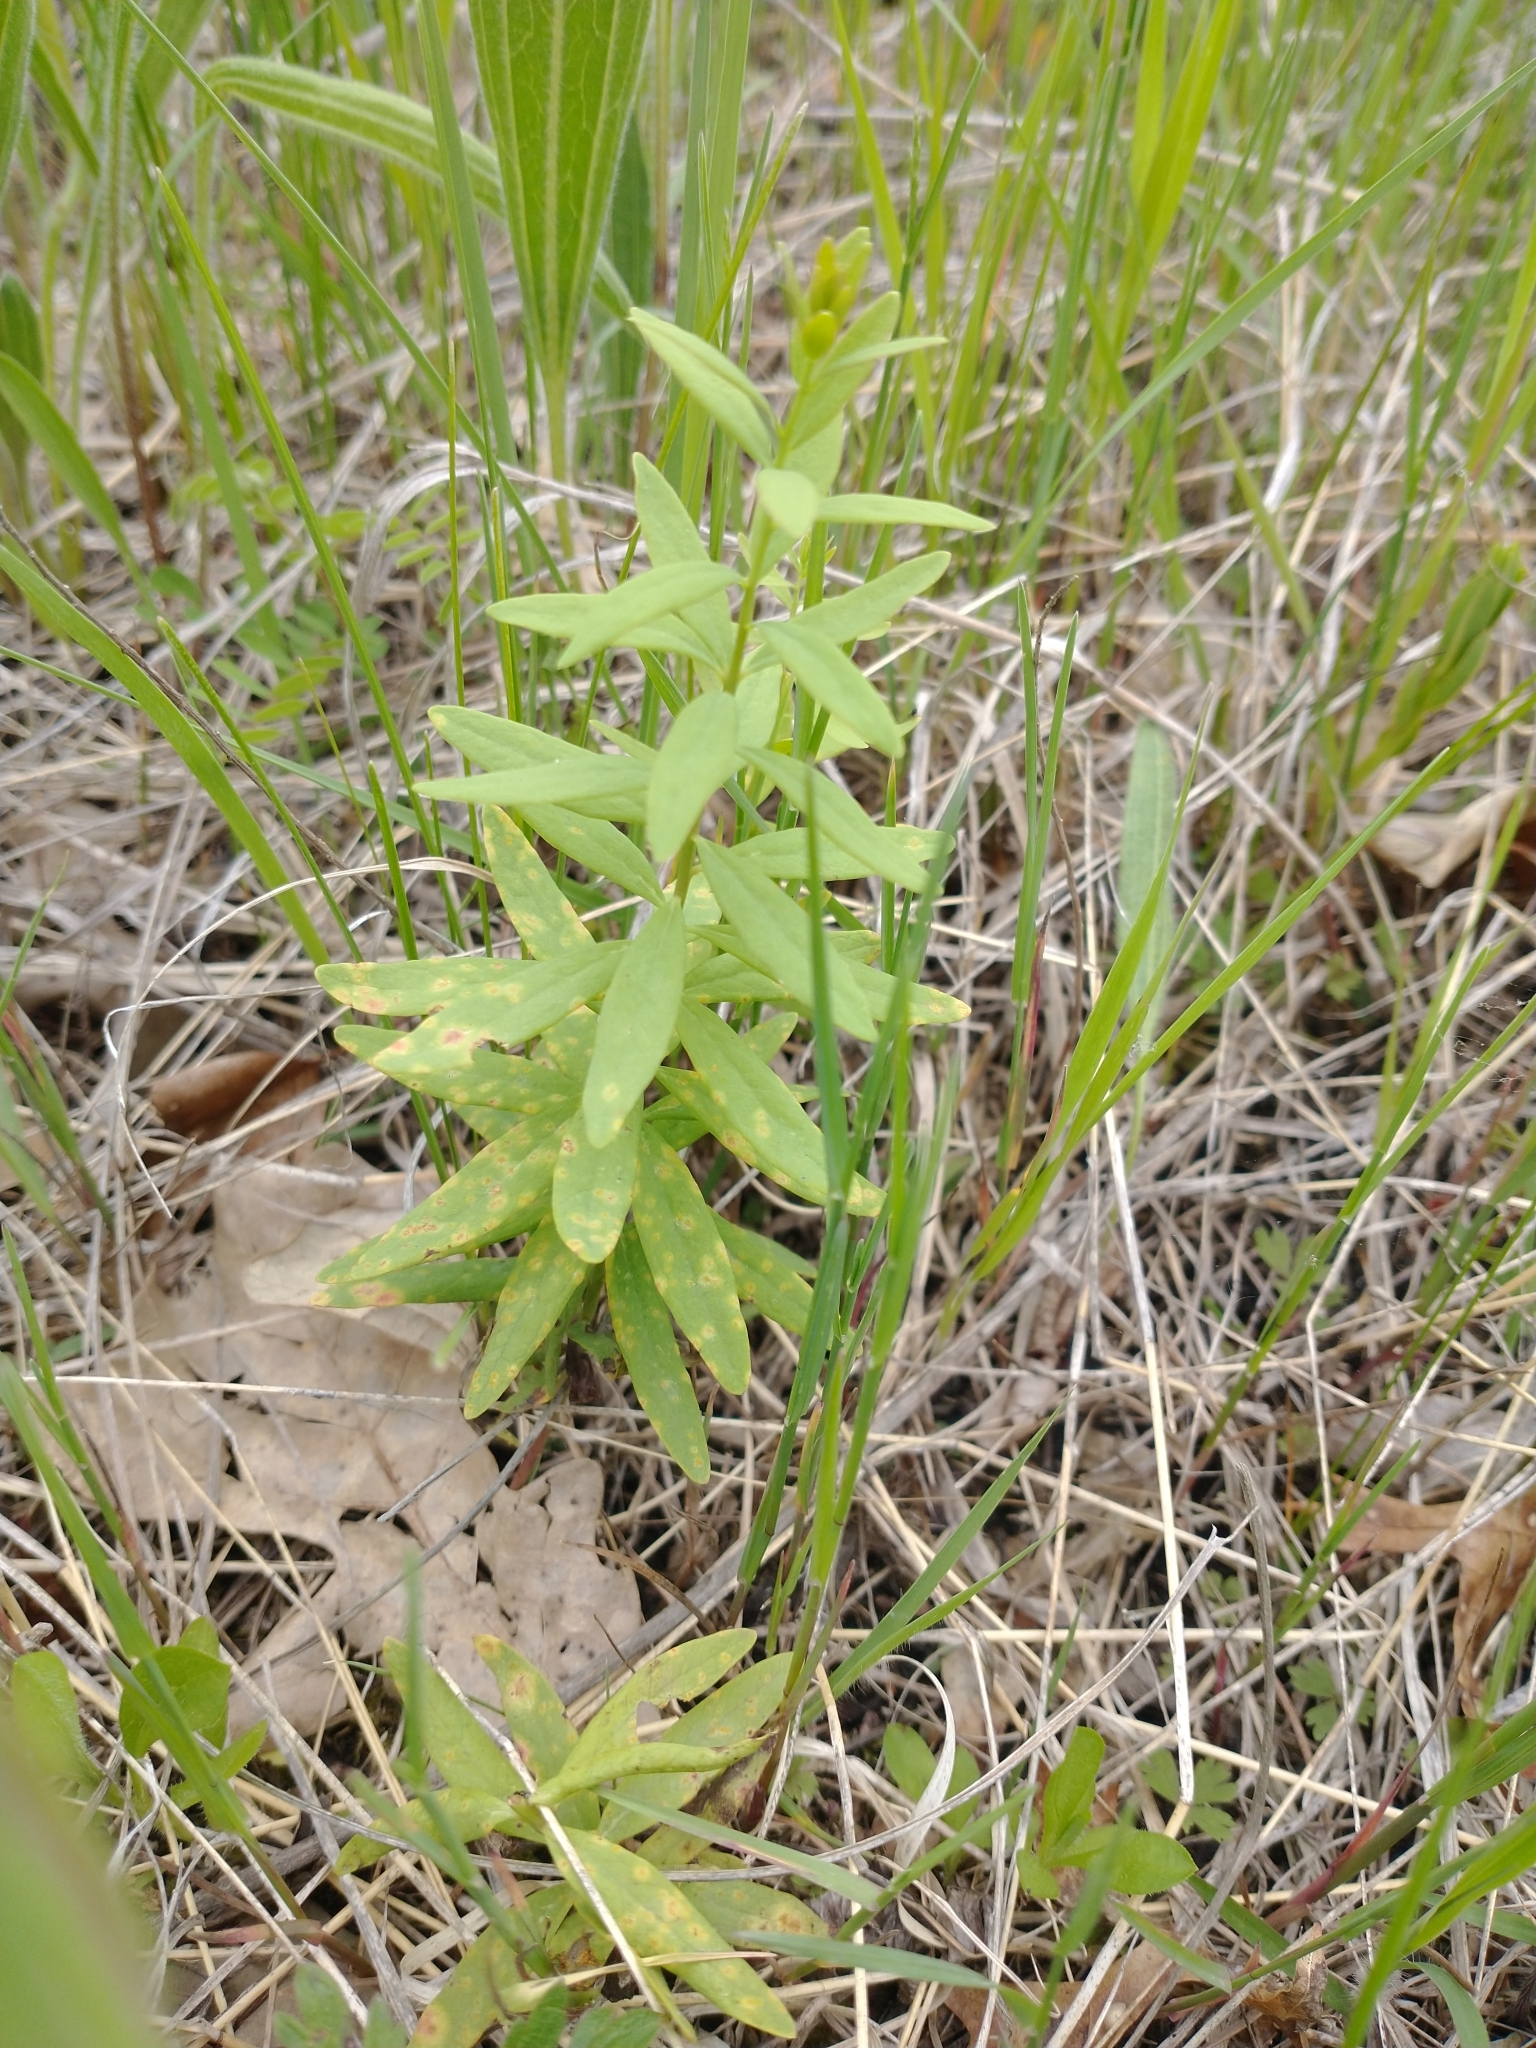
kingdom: Plantae
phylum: Tracheophyta
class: Magnoliopsida
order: Santalales
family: Comandraceae
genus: Comandra
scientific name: Comandra umbellata
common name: Bastard toadflax
